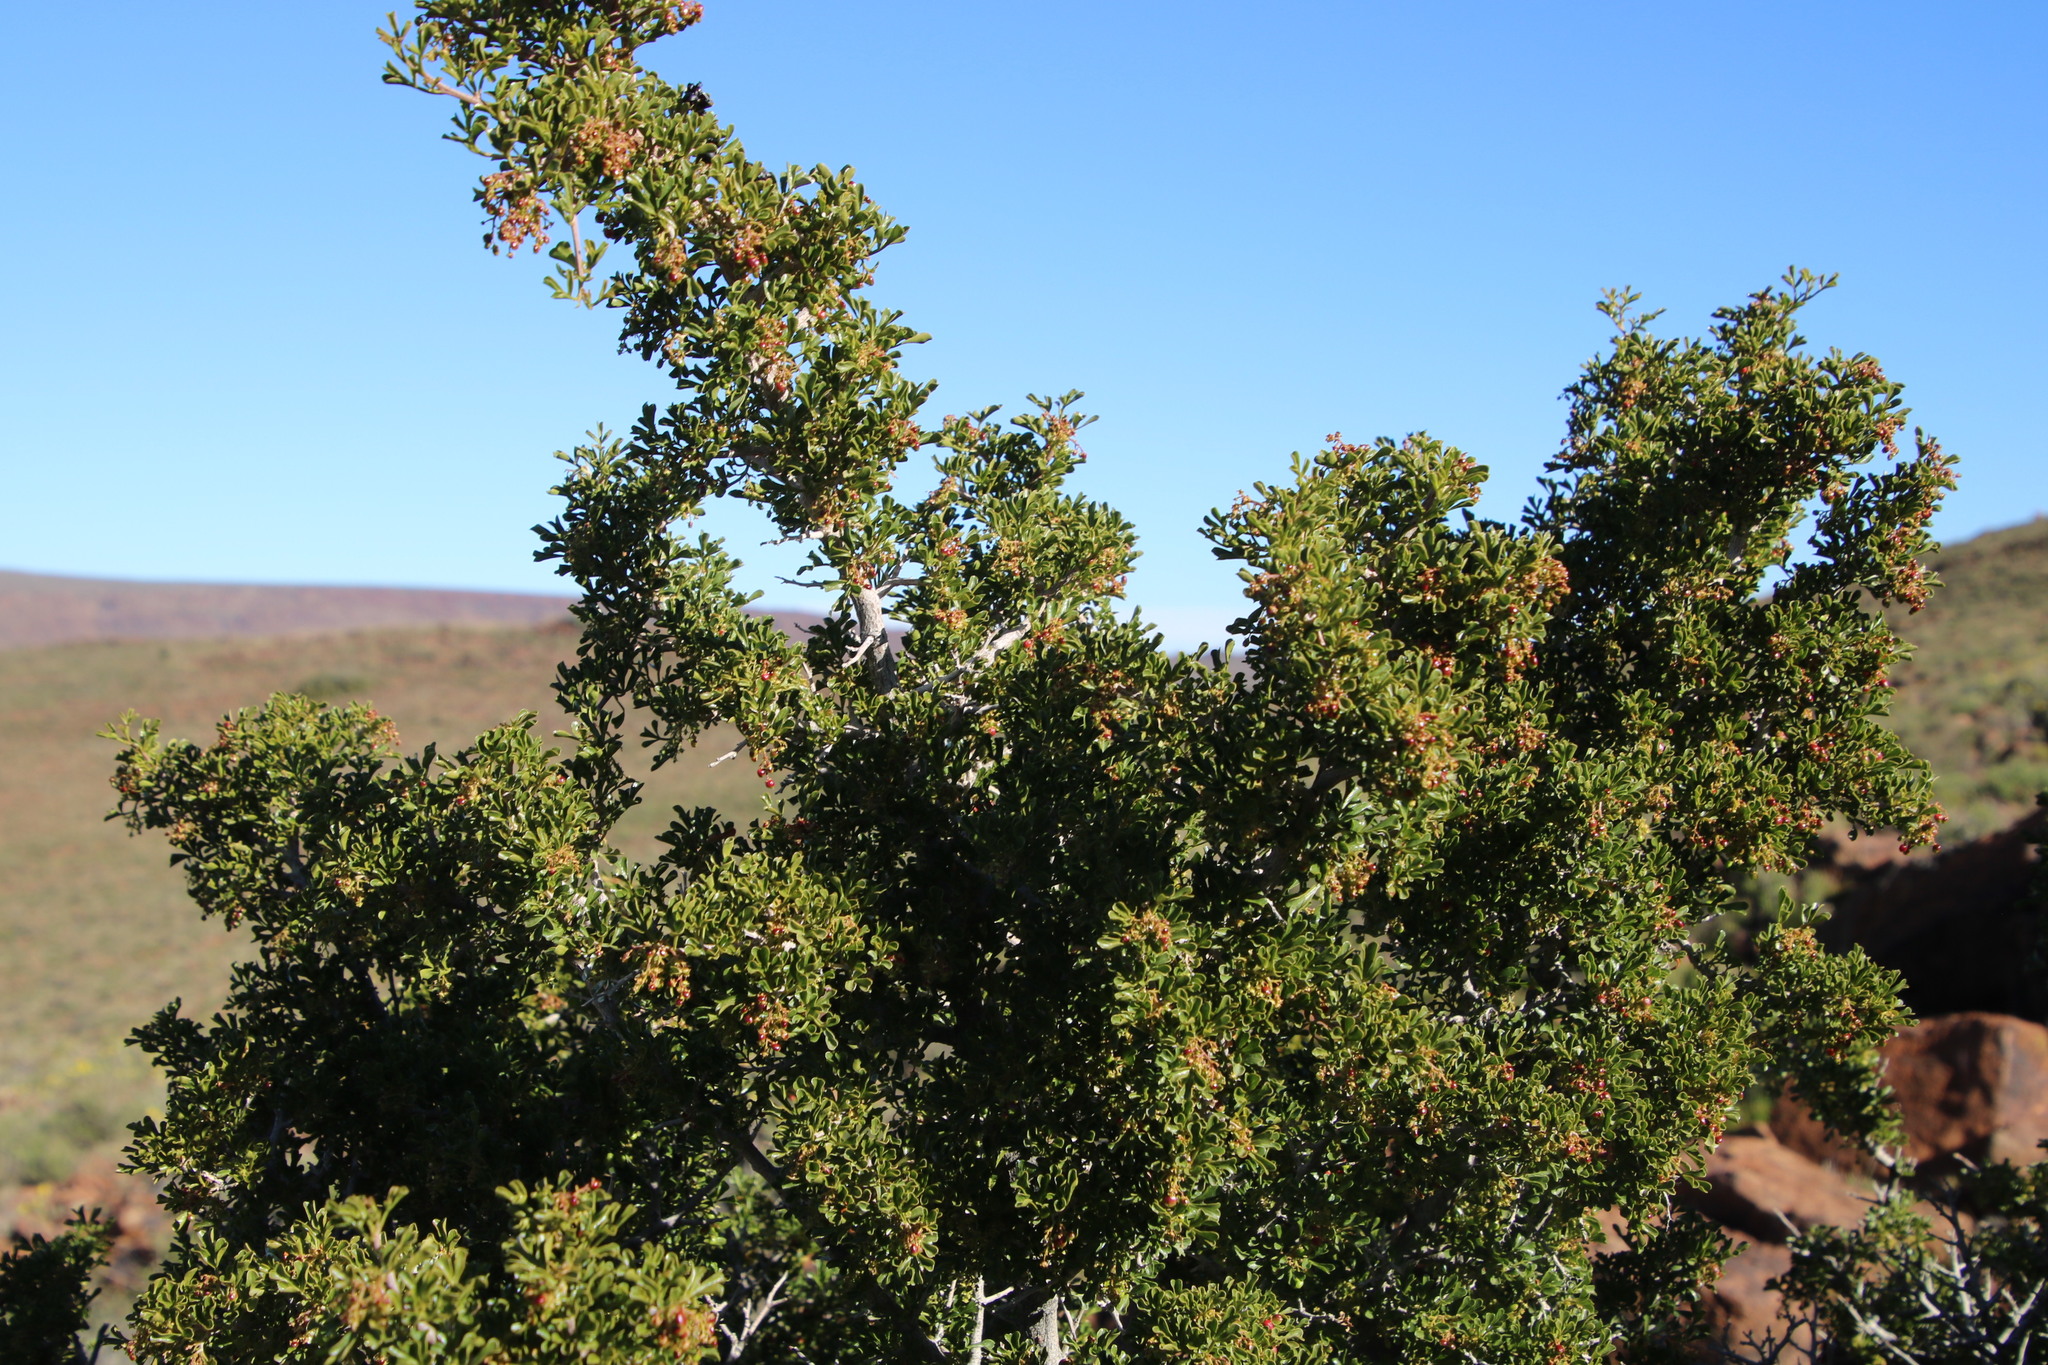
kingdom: Plantae
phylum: Tracheophyta
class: Magnoliopsida
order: Sapindales
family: Anacardiaceae
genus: Searsia
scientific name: Searsia burchellii
